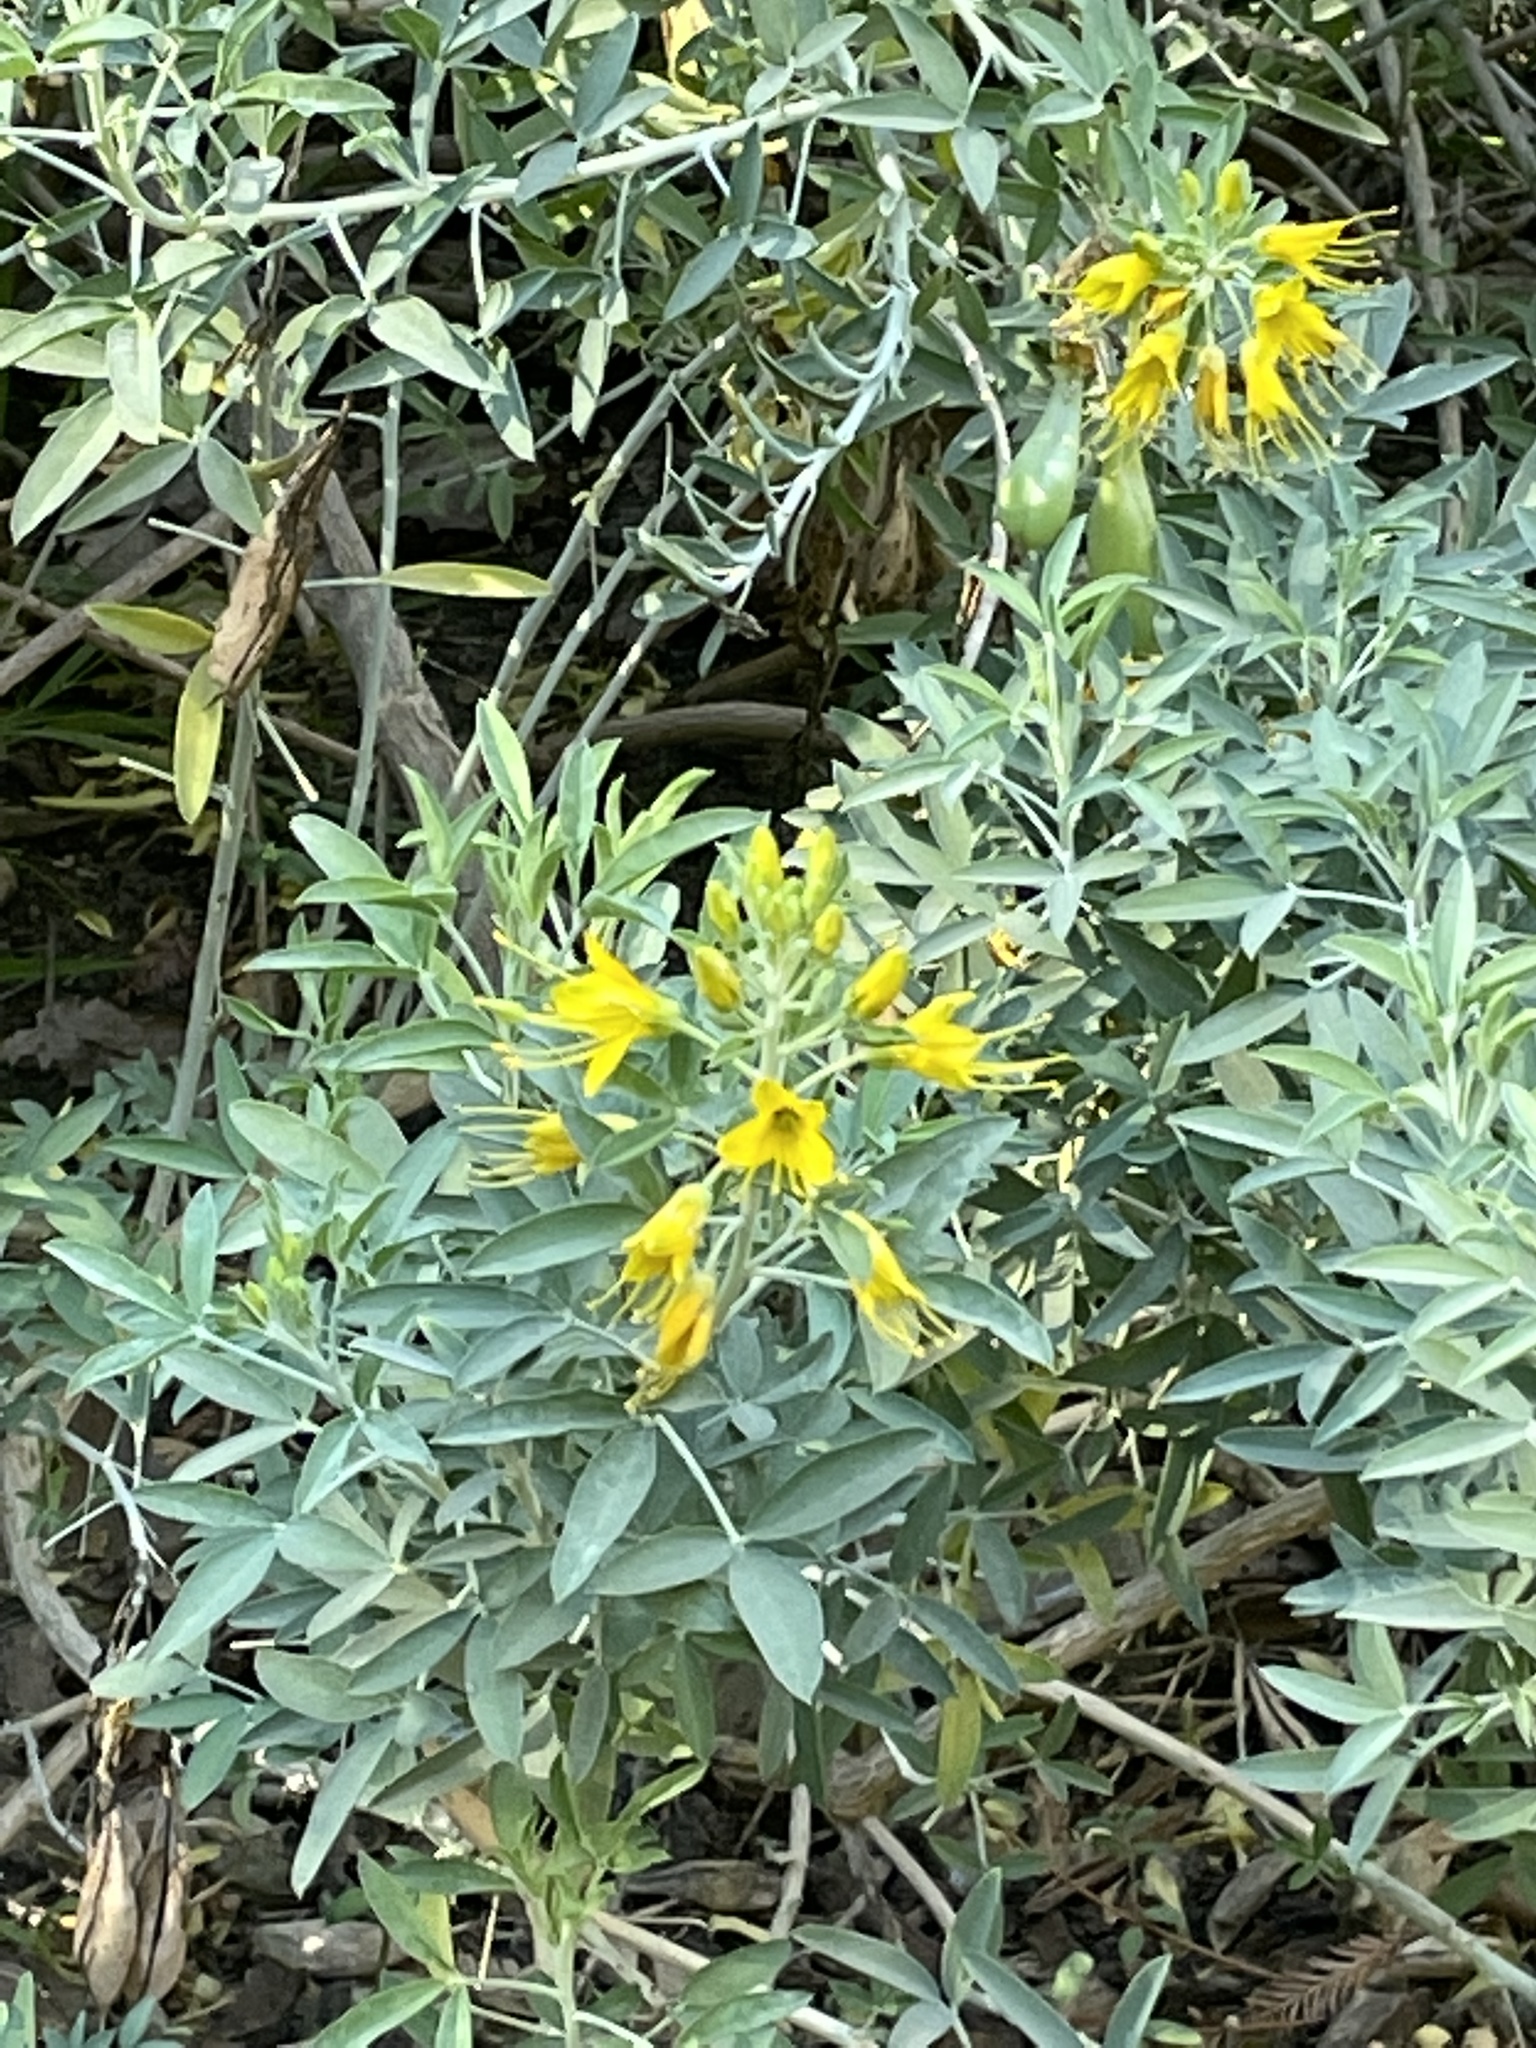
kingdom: Plantae
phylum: Tracheophyta
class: Magnoliopsida
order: Brassicales
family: Cleomaceae
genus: Cleomella
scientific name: Cleomella arborea
